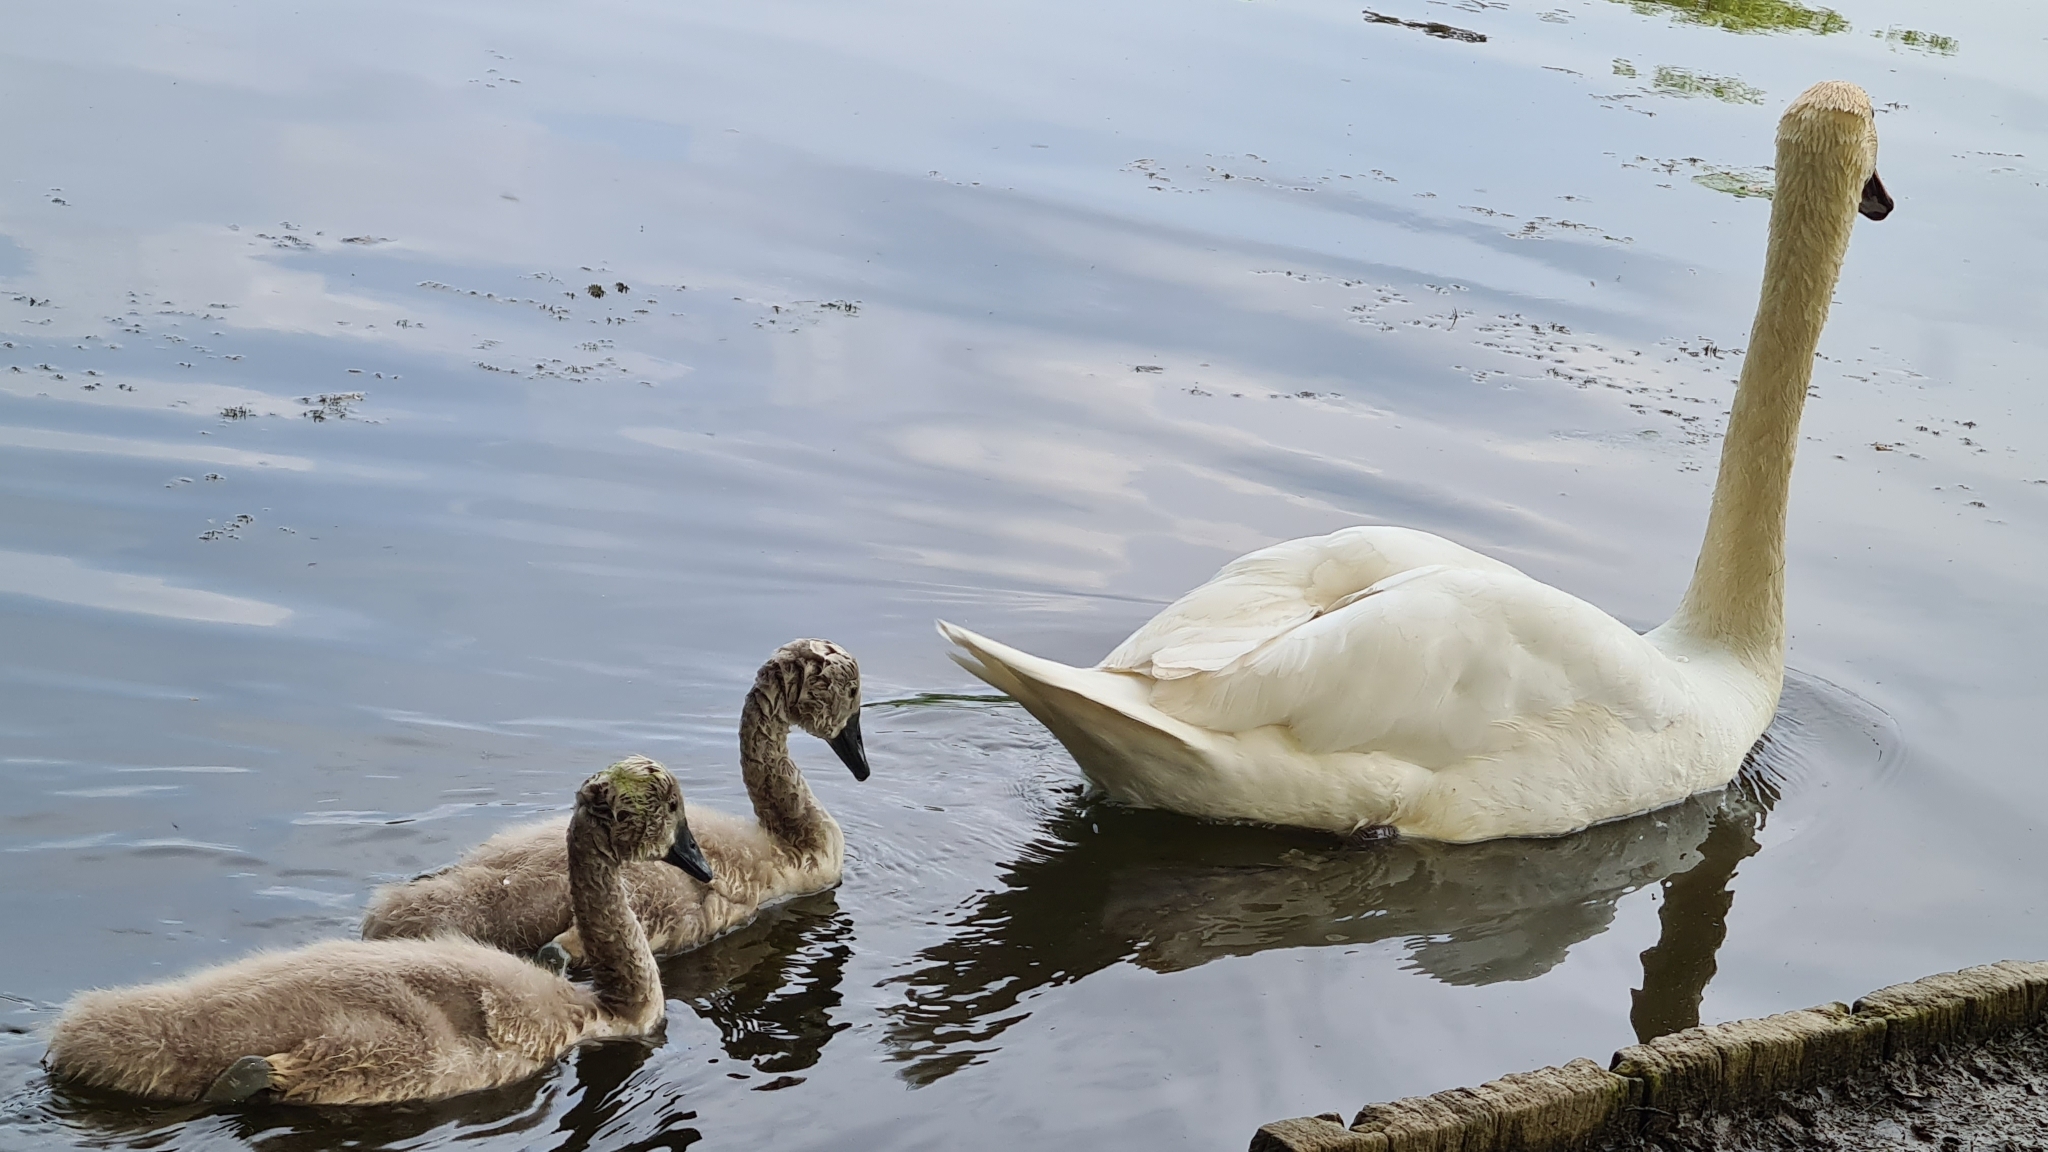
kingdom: Animalia
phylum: Chordata
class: Aves
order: Anseriformes
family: Anatidae
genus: Cygnus
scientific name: Cygnus olor
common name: Mute swan
